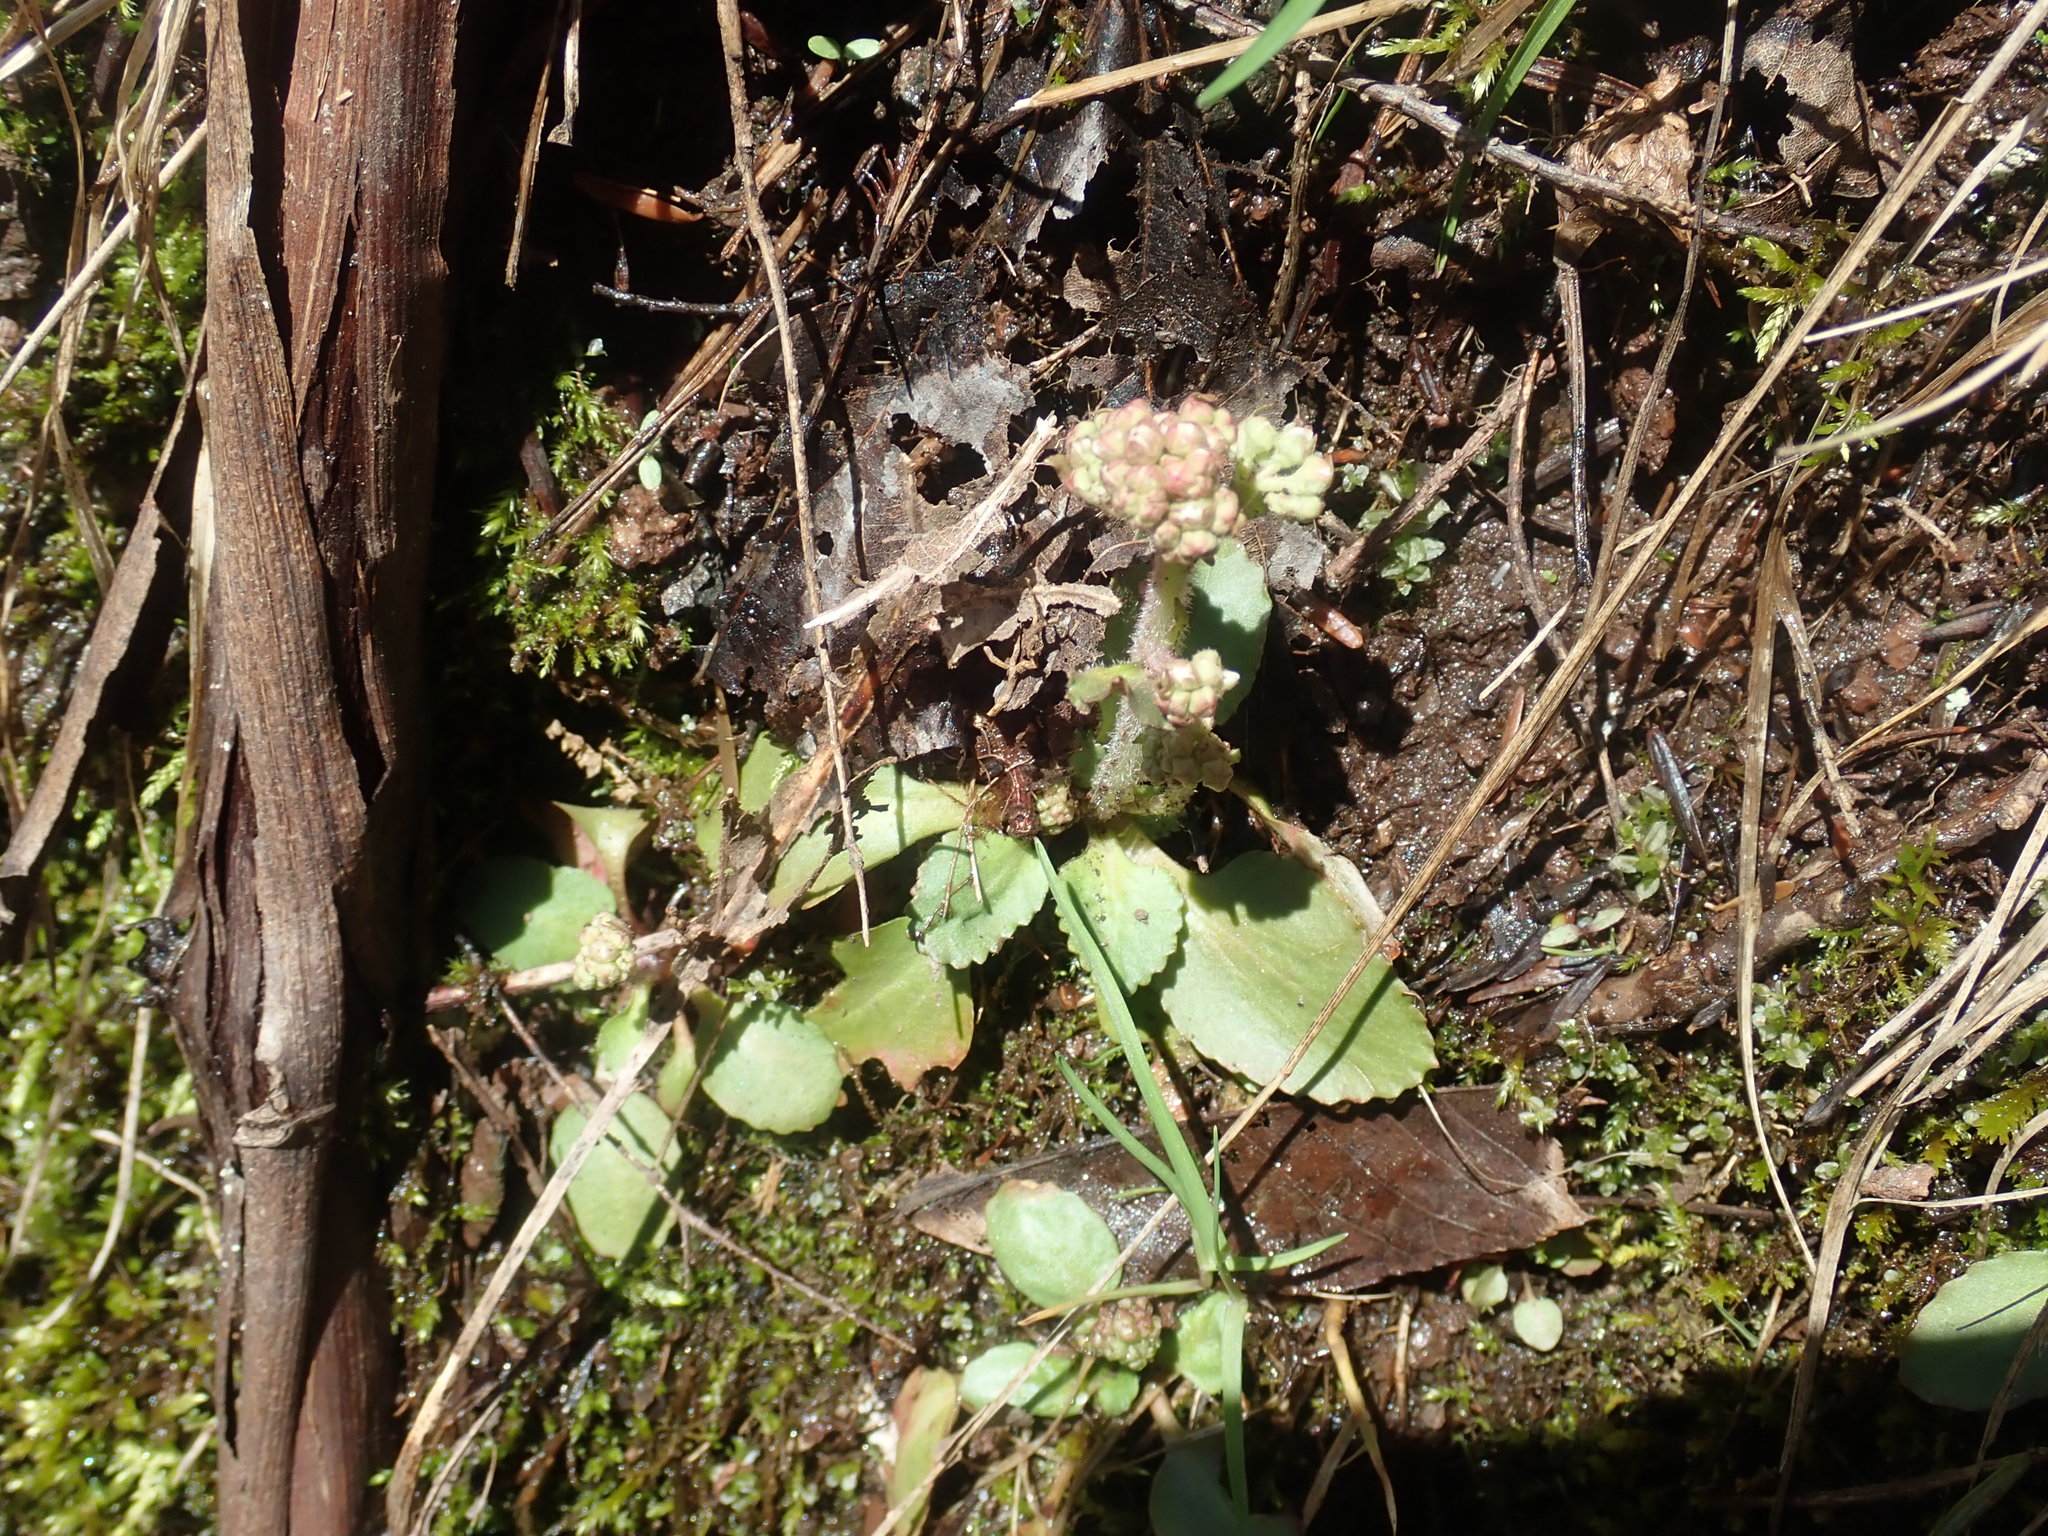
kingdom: Plantae
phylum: Tracheophyta
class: Magnoliopsida
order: Saxifragales
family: Saxifragaceae
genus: Micranthes
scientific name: Micranthes virginiensis
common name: Early saxifrage
